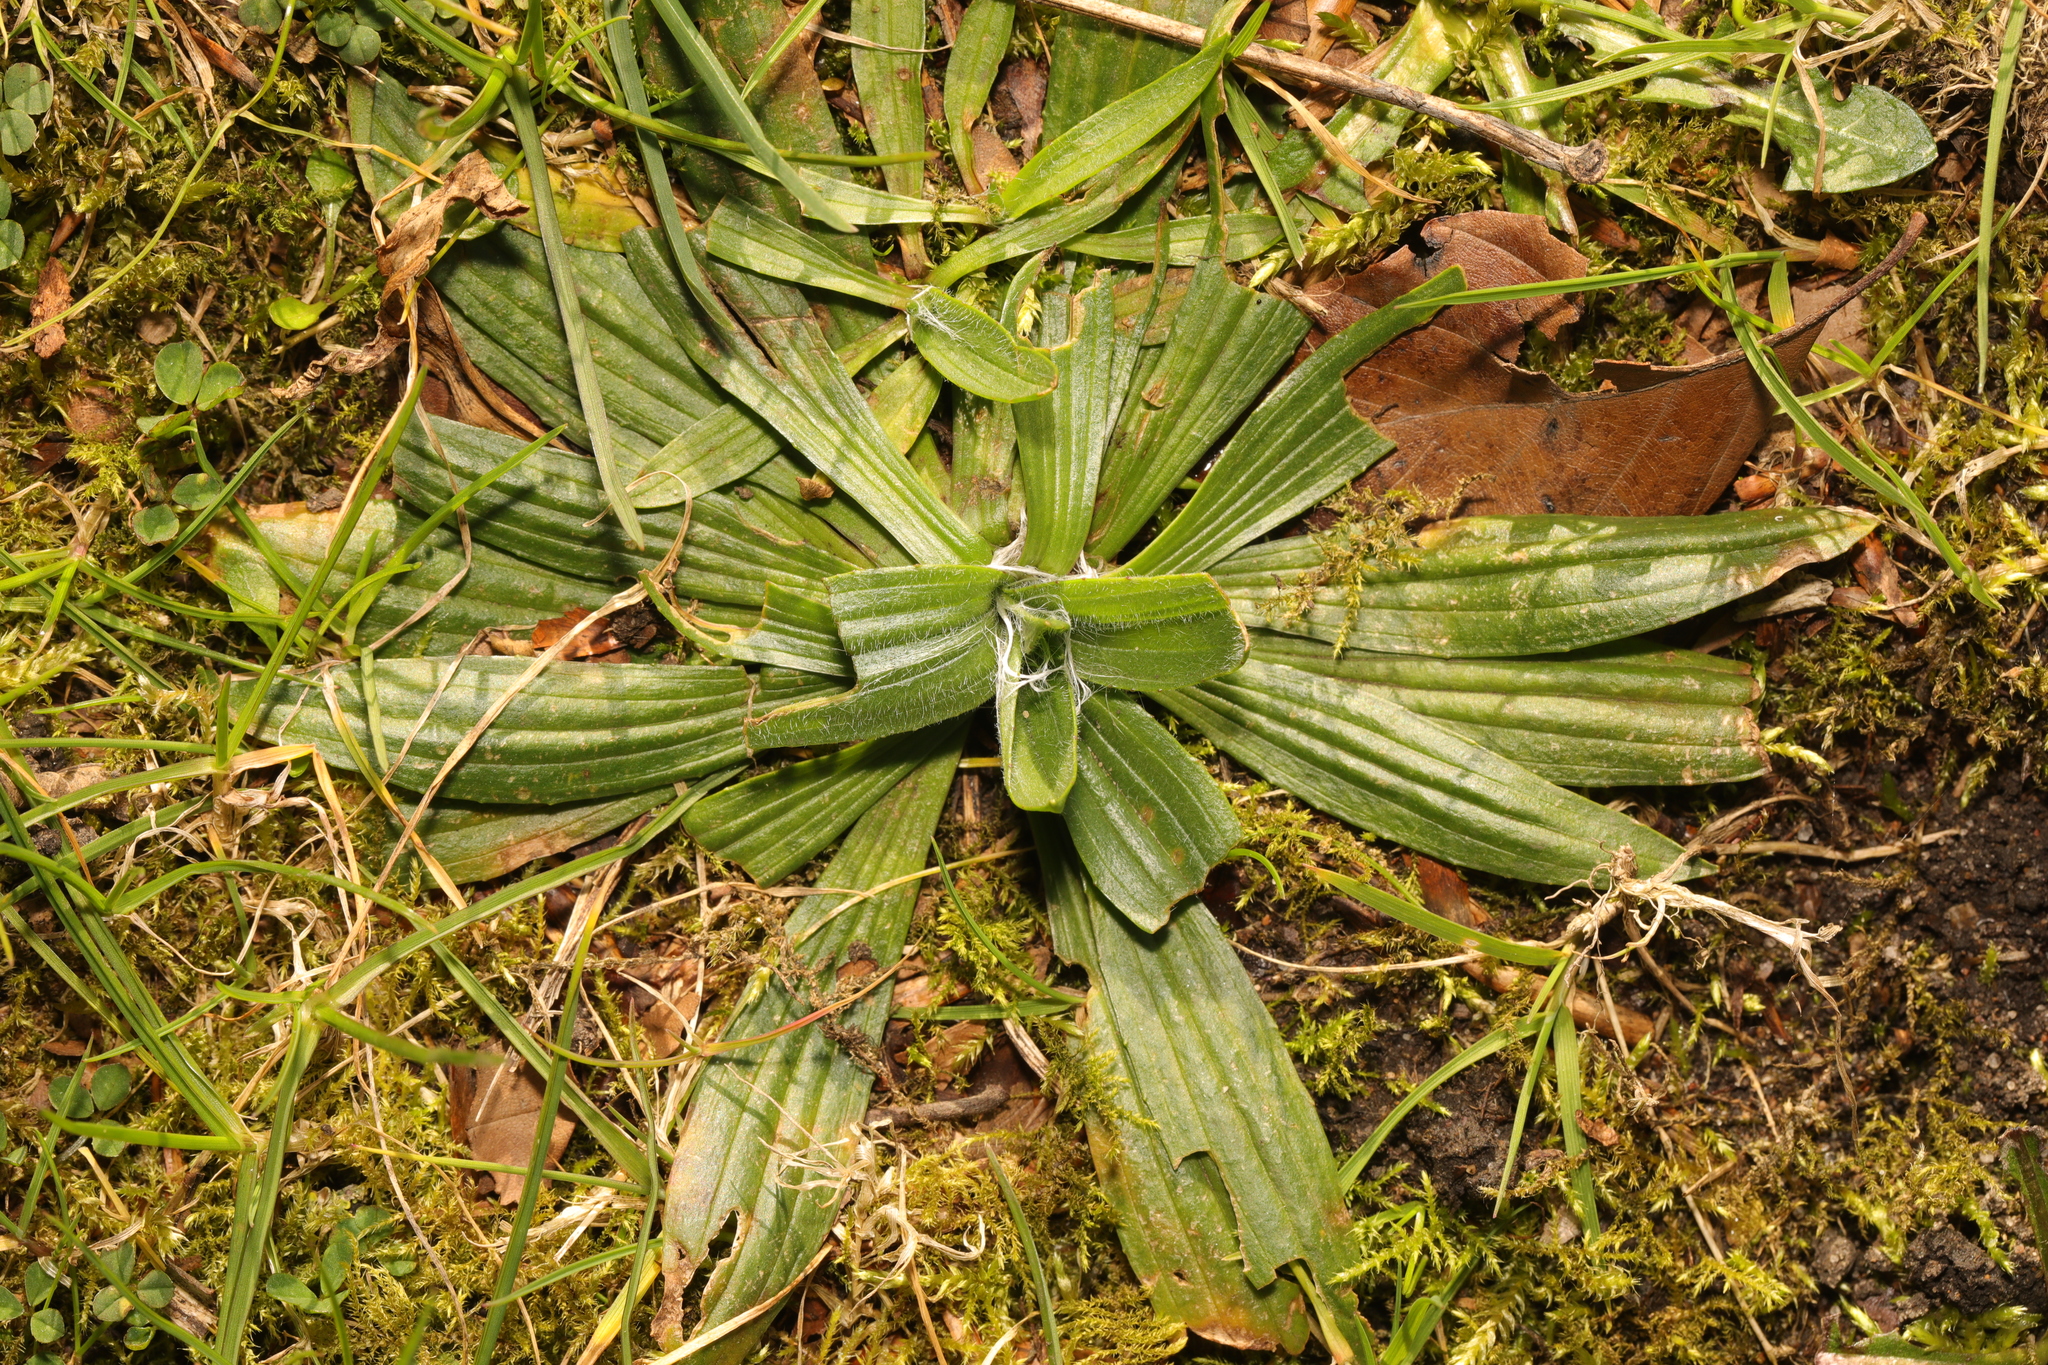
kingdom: Plantae
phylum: Tracheophyta
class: Magnoliopsida
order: Lamiales
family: Plantaginaceae
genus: Plantago
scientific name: Plantago lanceolata
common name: Ribwort plantain
